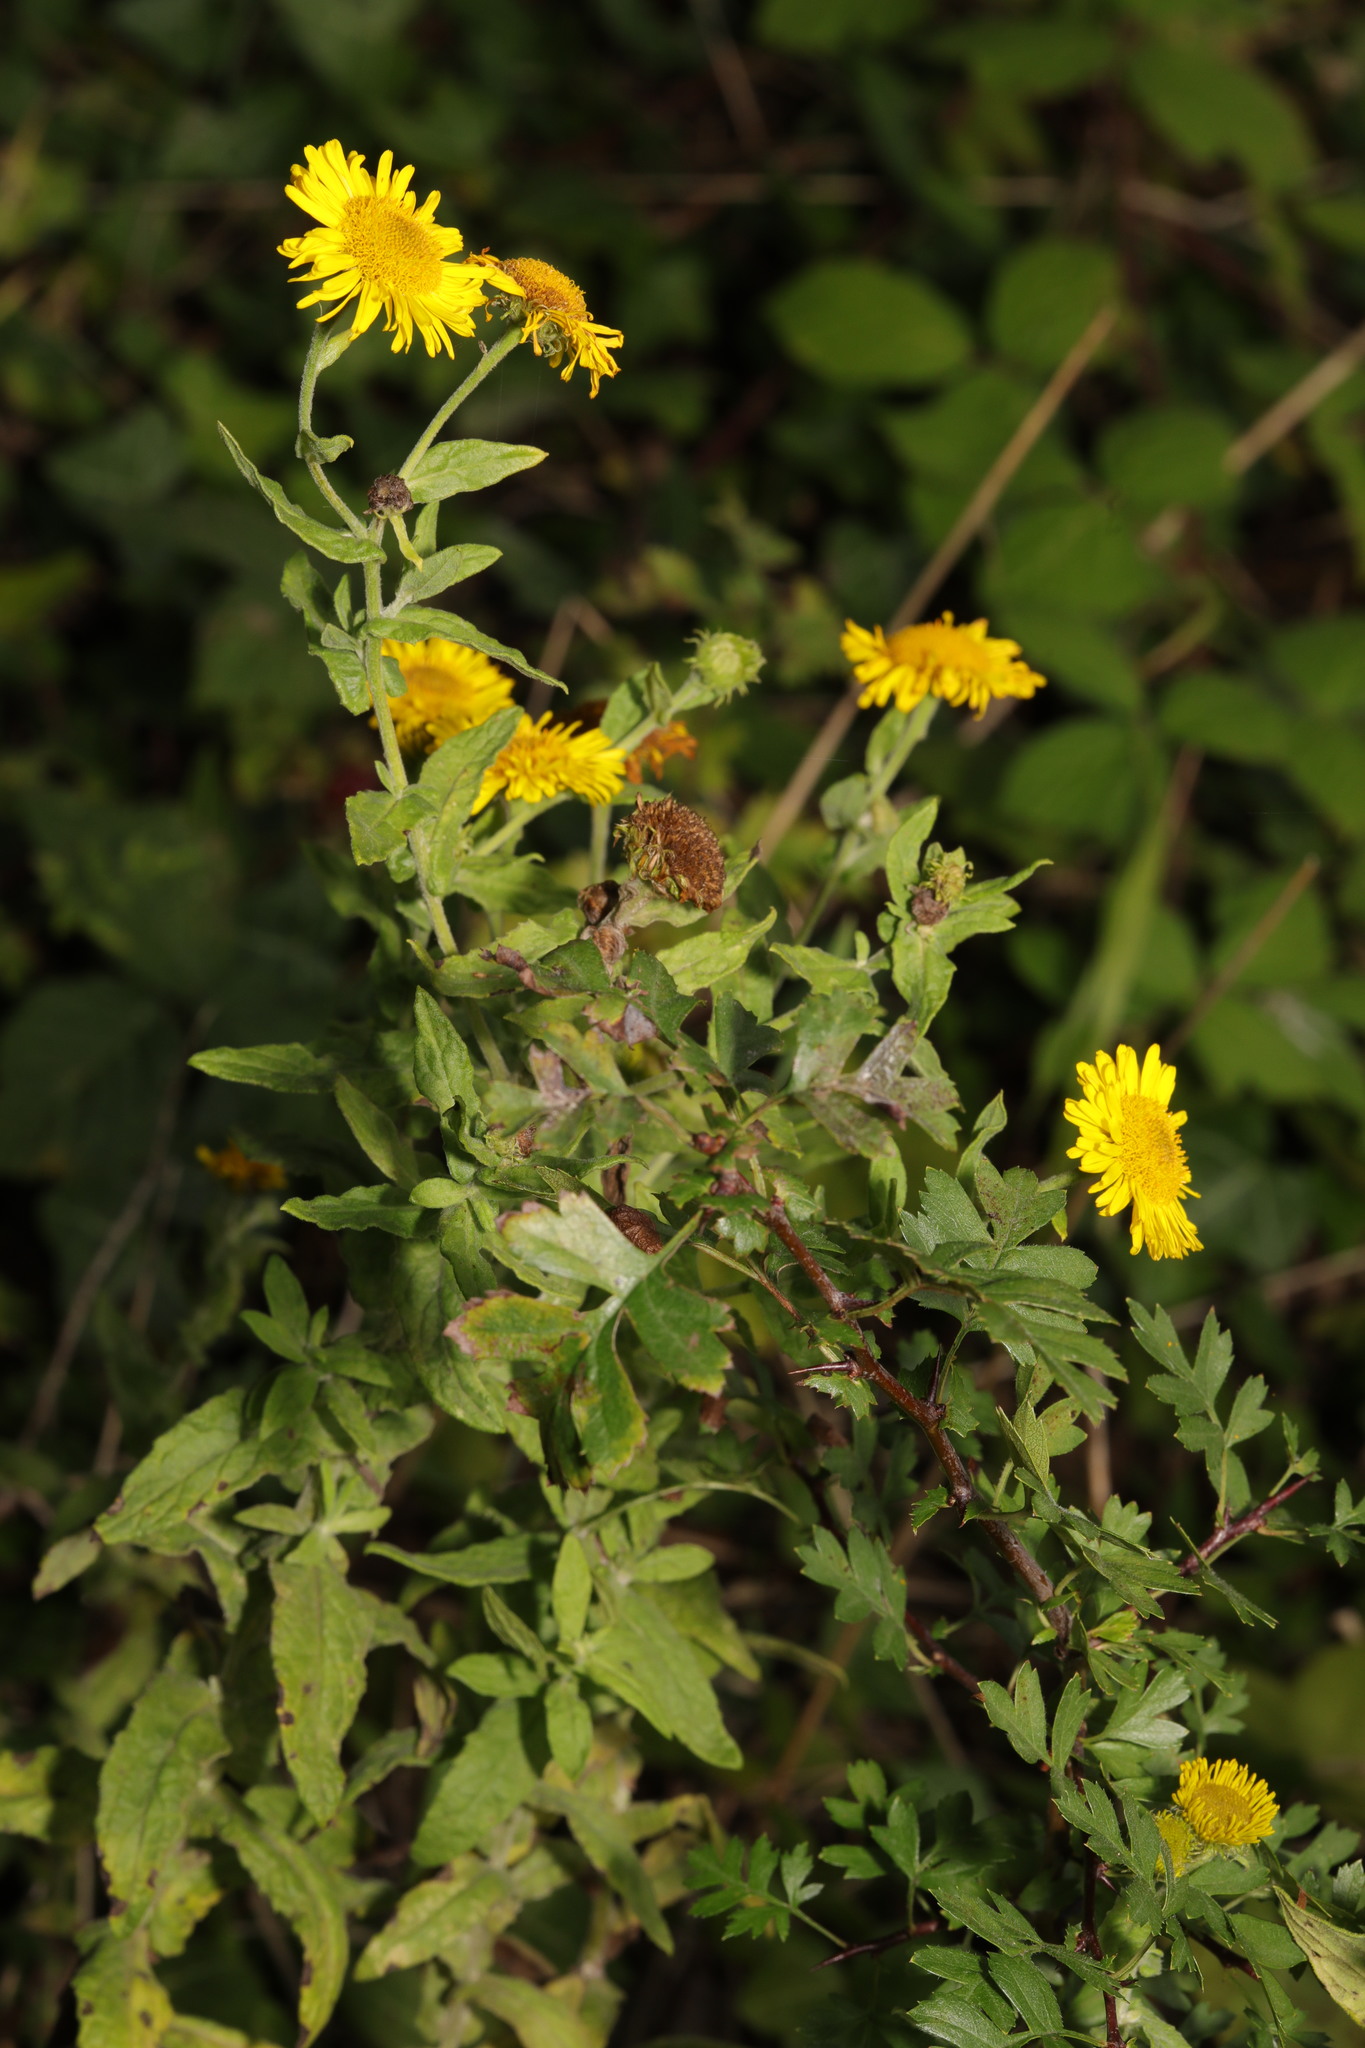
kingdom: Plantae
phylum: Tracheophyta
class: Magnoliopsida
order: Asterales
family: Asteraceae
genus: Pulicaria
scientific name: Pulicaria dysenterica
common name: Common fleabane
